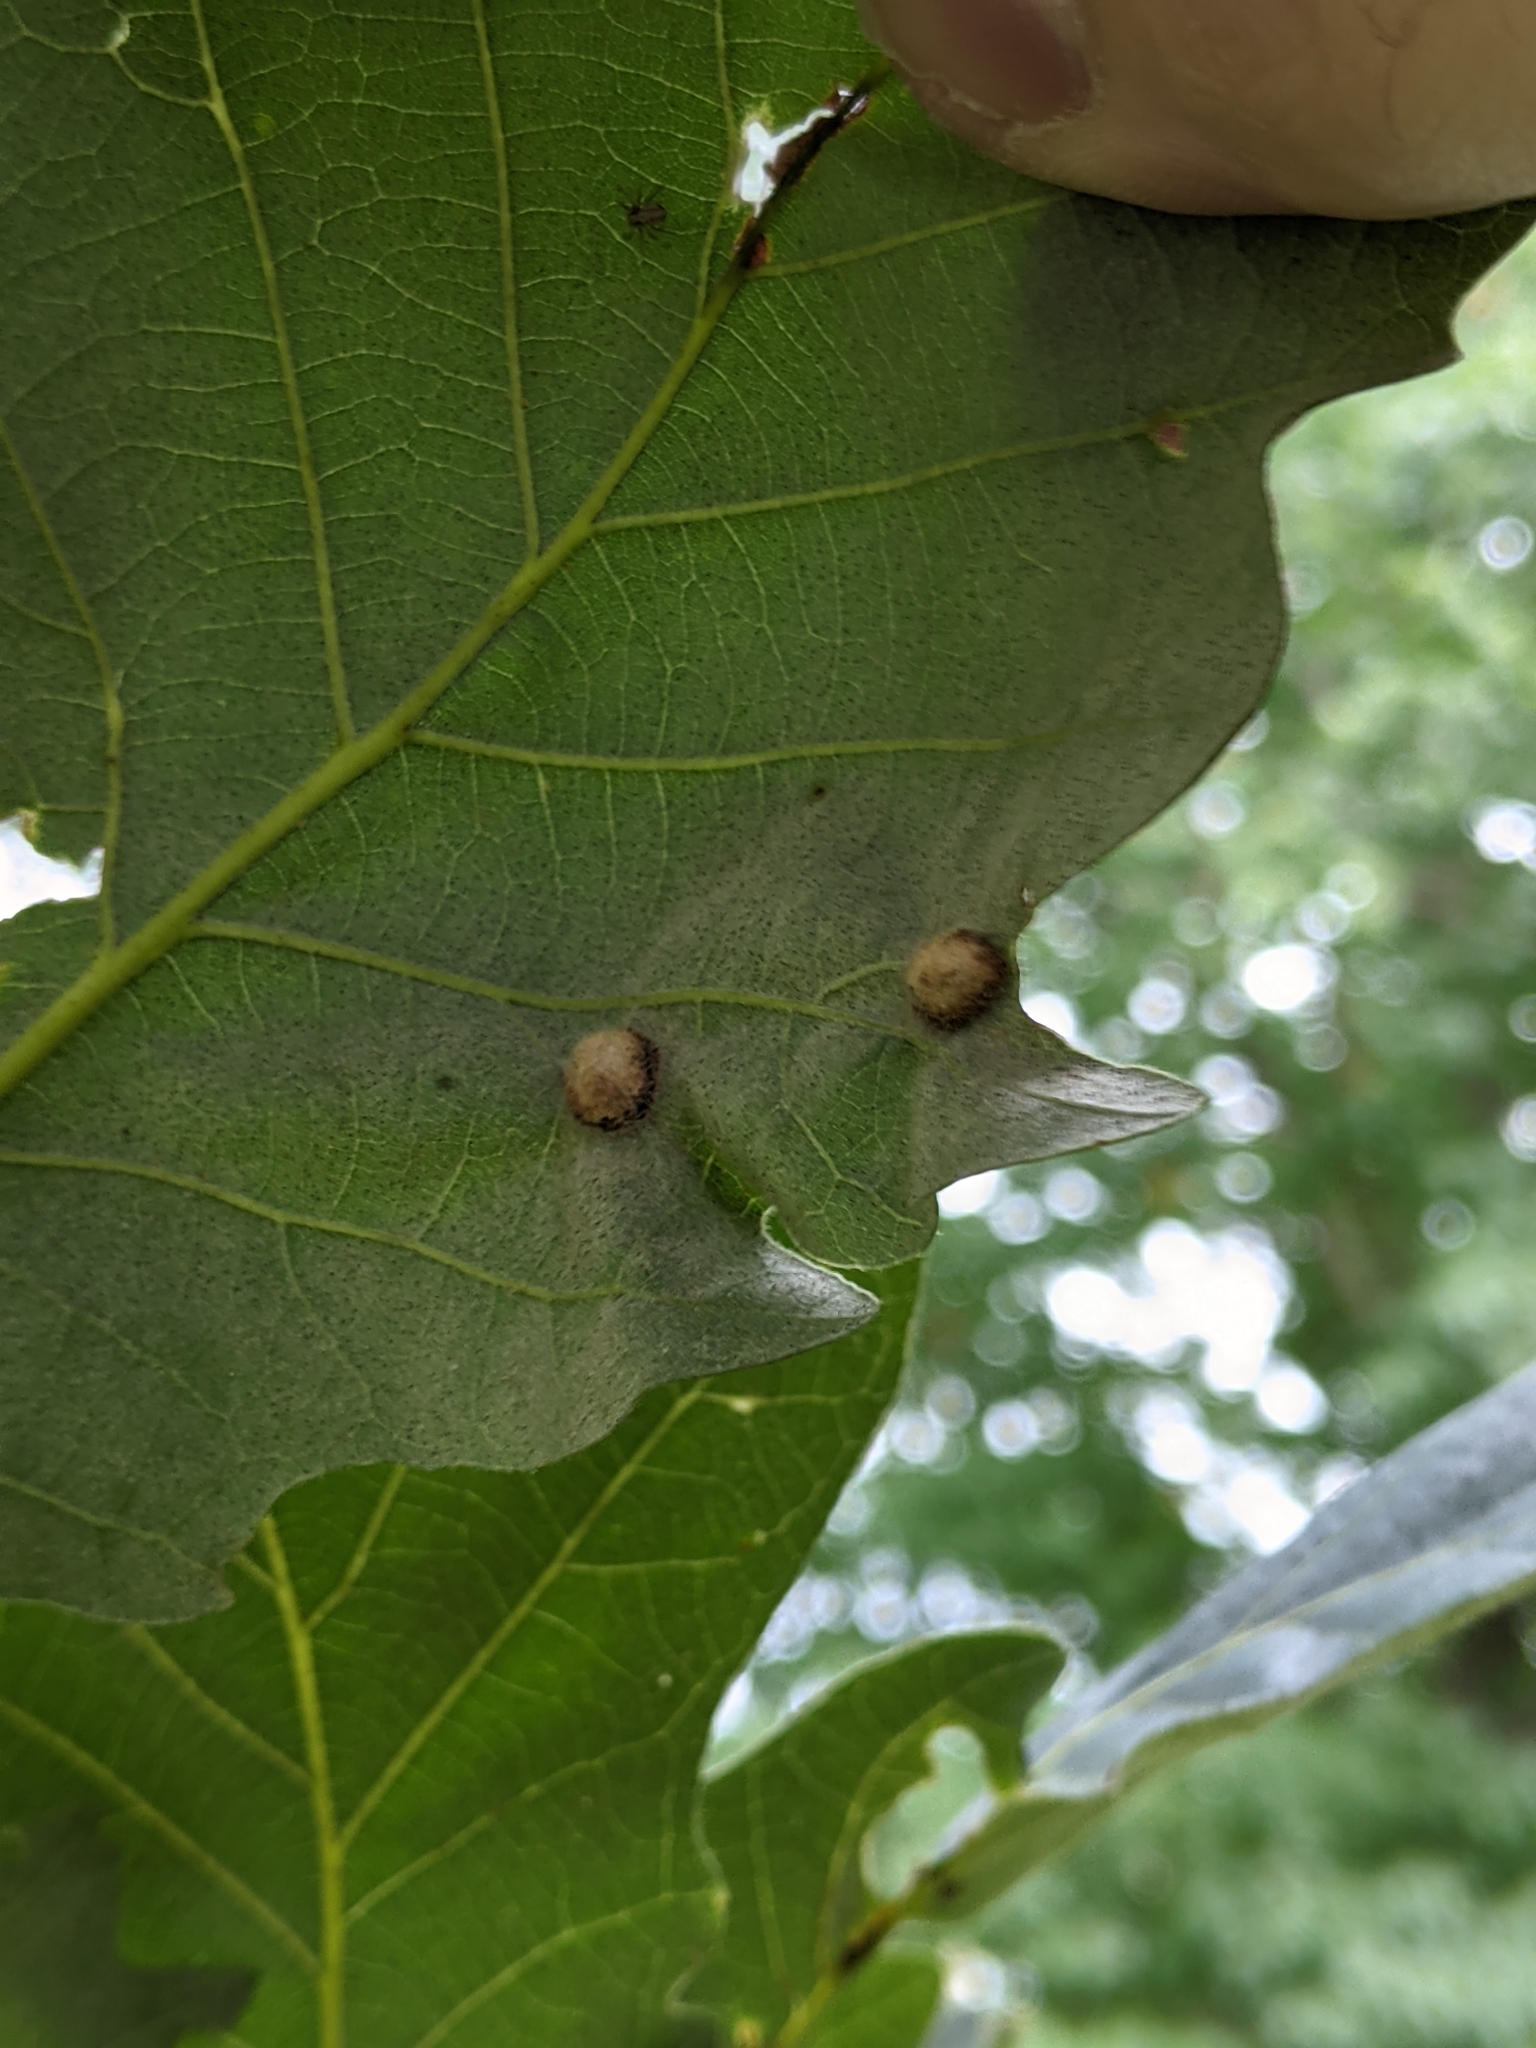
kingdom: Animalia
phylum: Arthropoda
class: Insecta
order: Hymenoptera
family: Cynipidae
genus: Callirhytis
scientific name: Callirhytis
